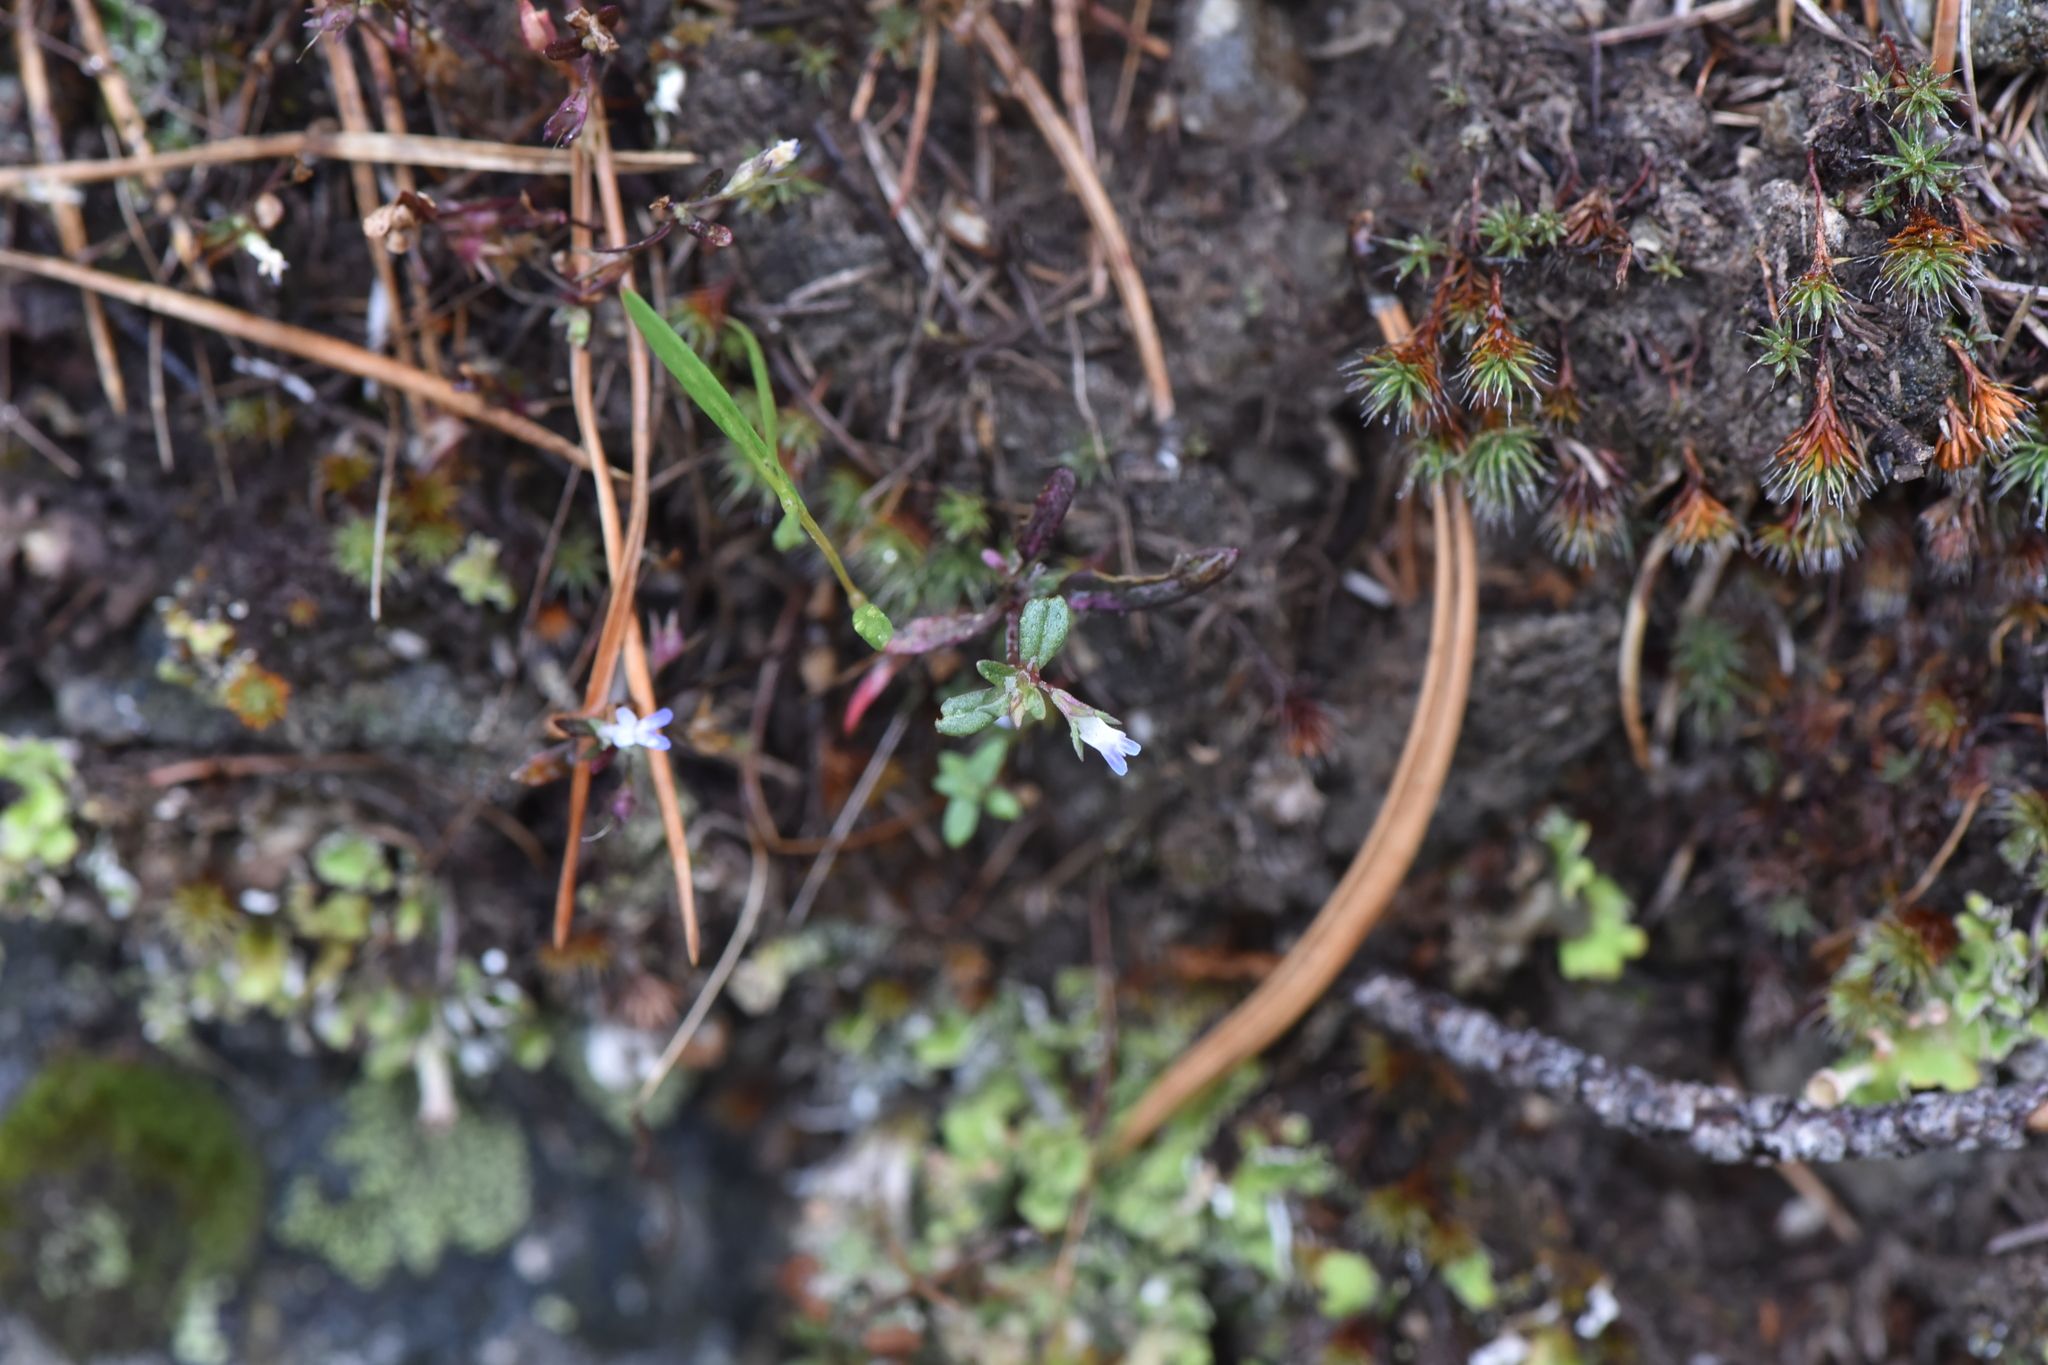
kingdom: Plantae
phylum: Tracheophyta
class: Magnoliopsida
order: Lamiales
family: Plantaginaceae
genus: Collinsia
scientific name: Collinsia parviflora
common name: Blue-lips
